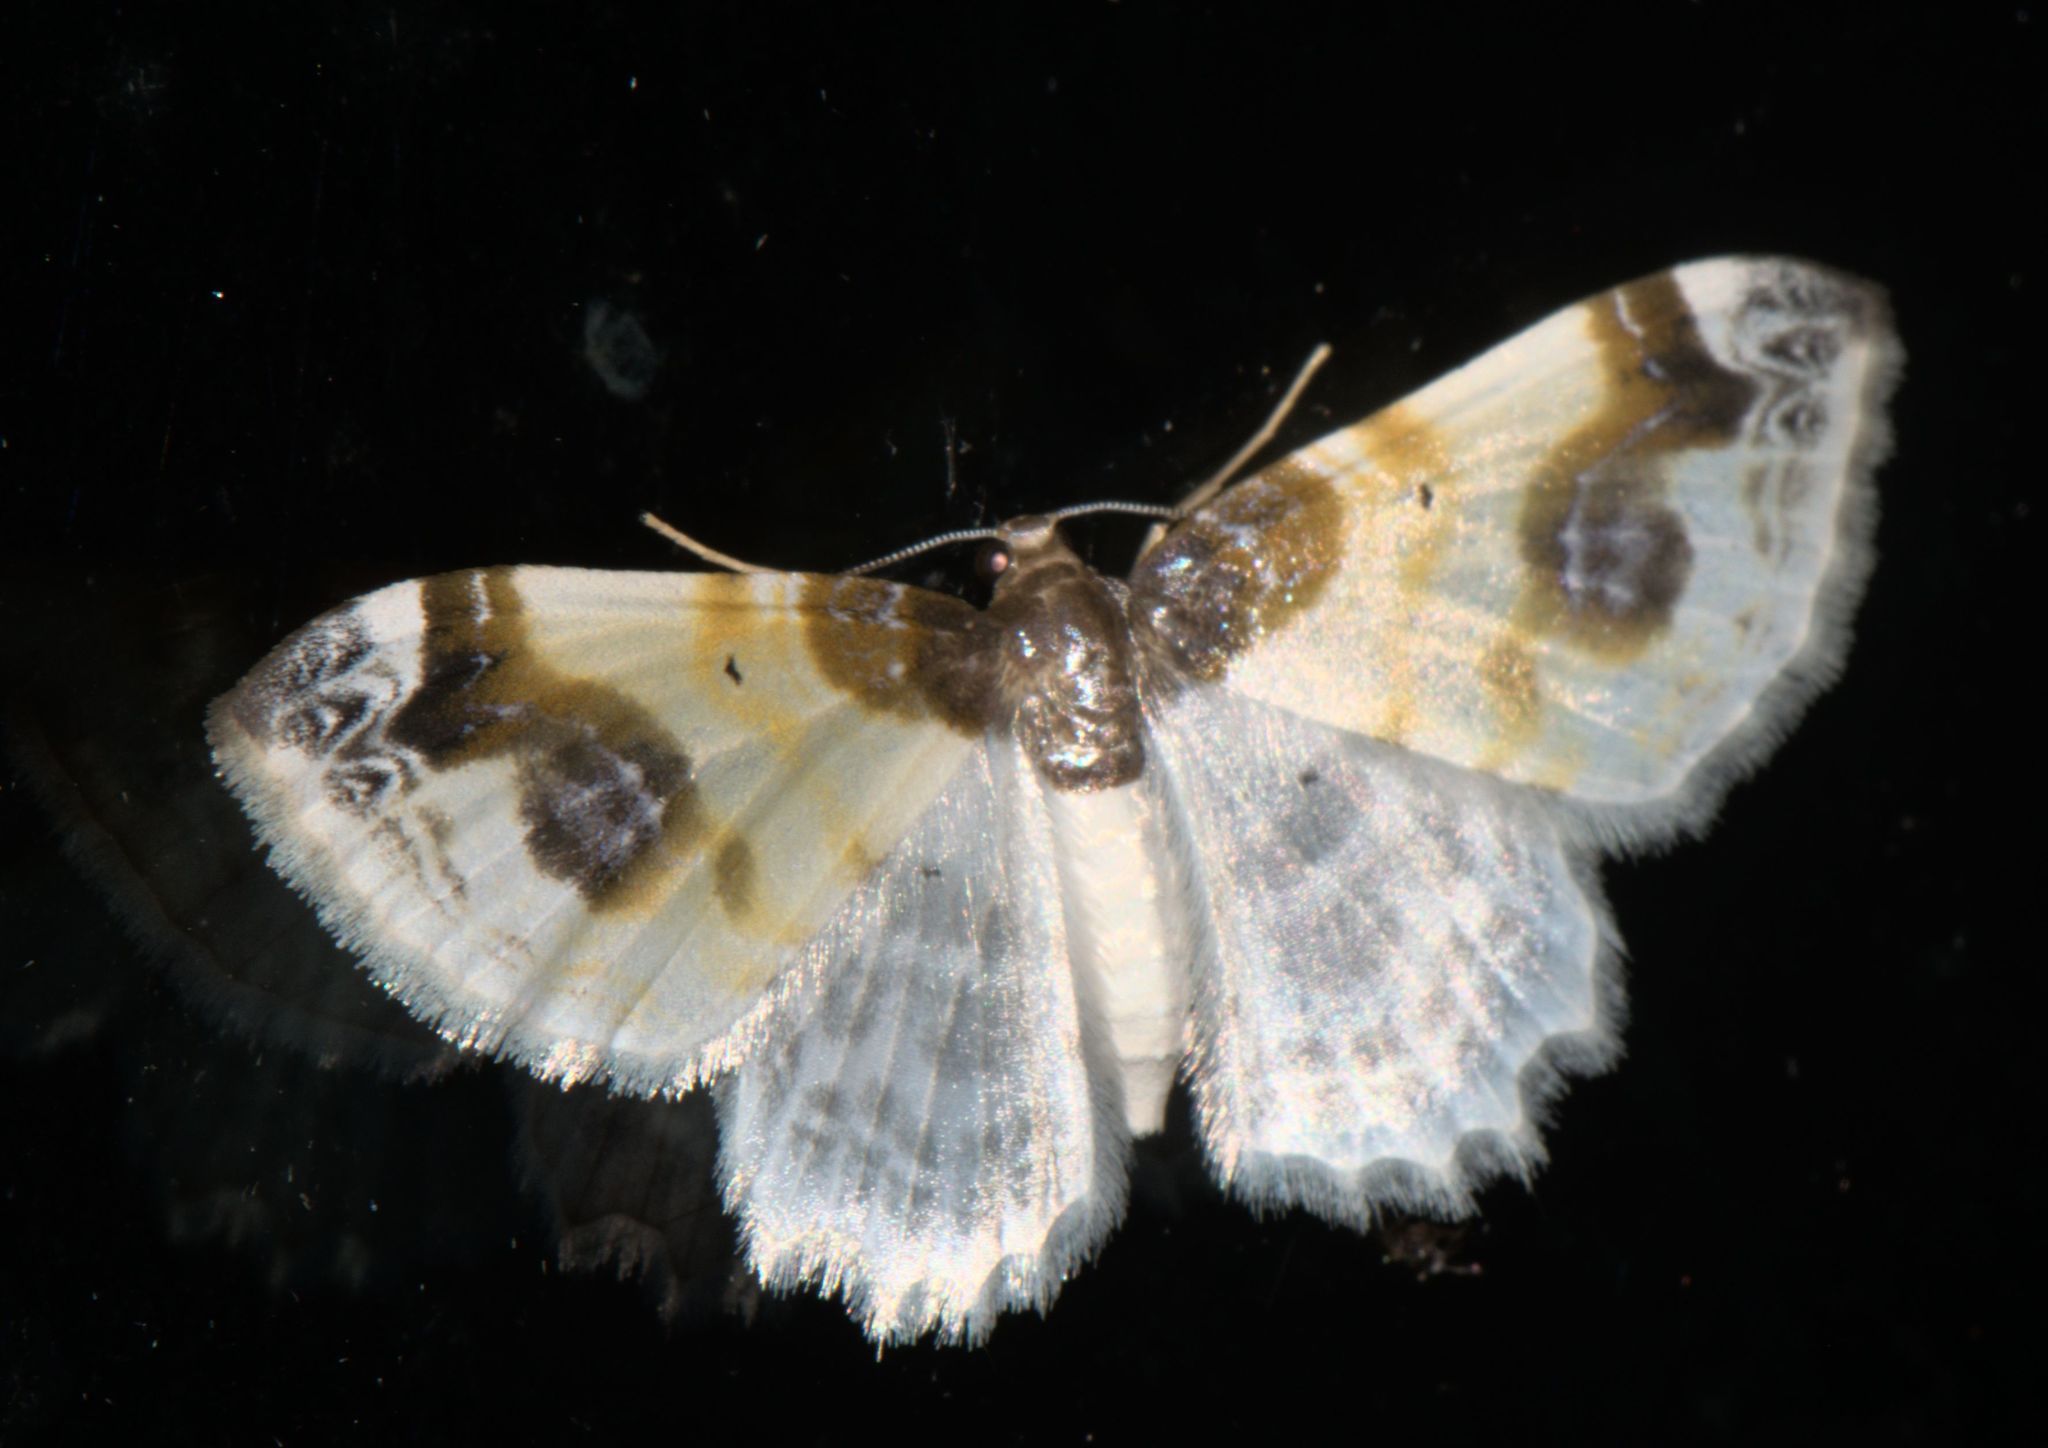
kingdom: Animalia
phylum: Arthropoda
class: Insecta
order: Lepidoptera
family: Geometridae
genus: Agnibesa
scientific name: Agnibesa pictaria
